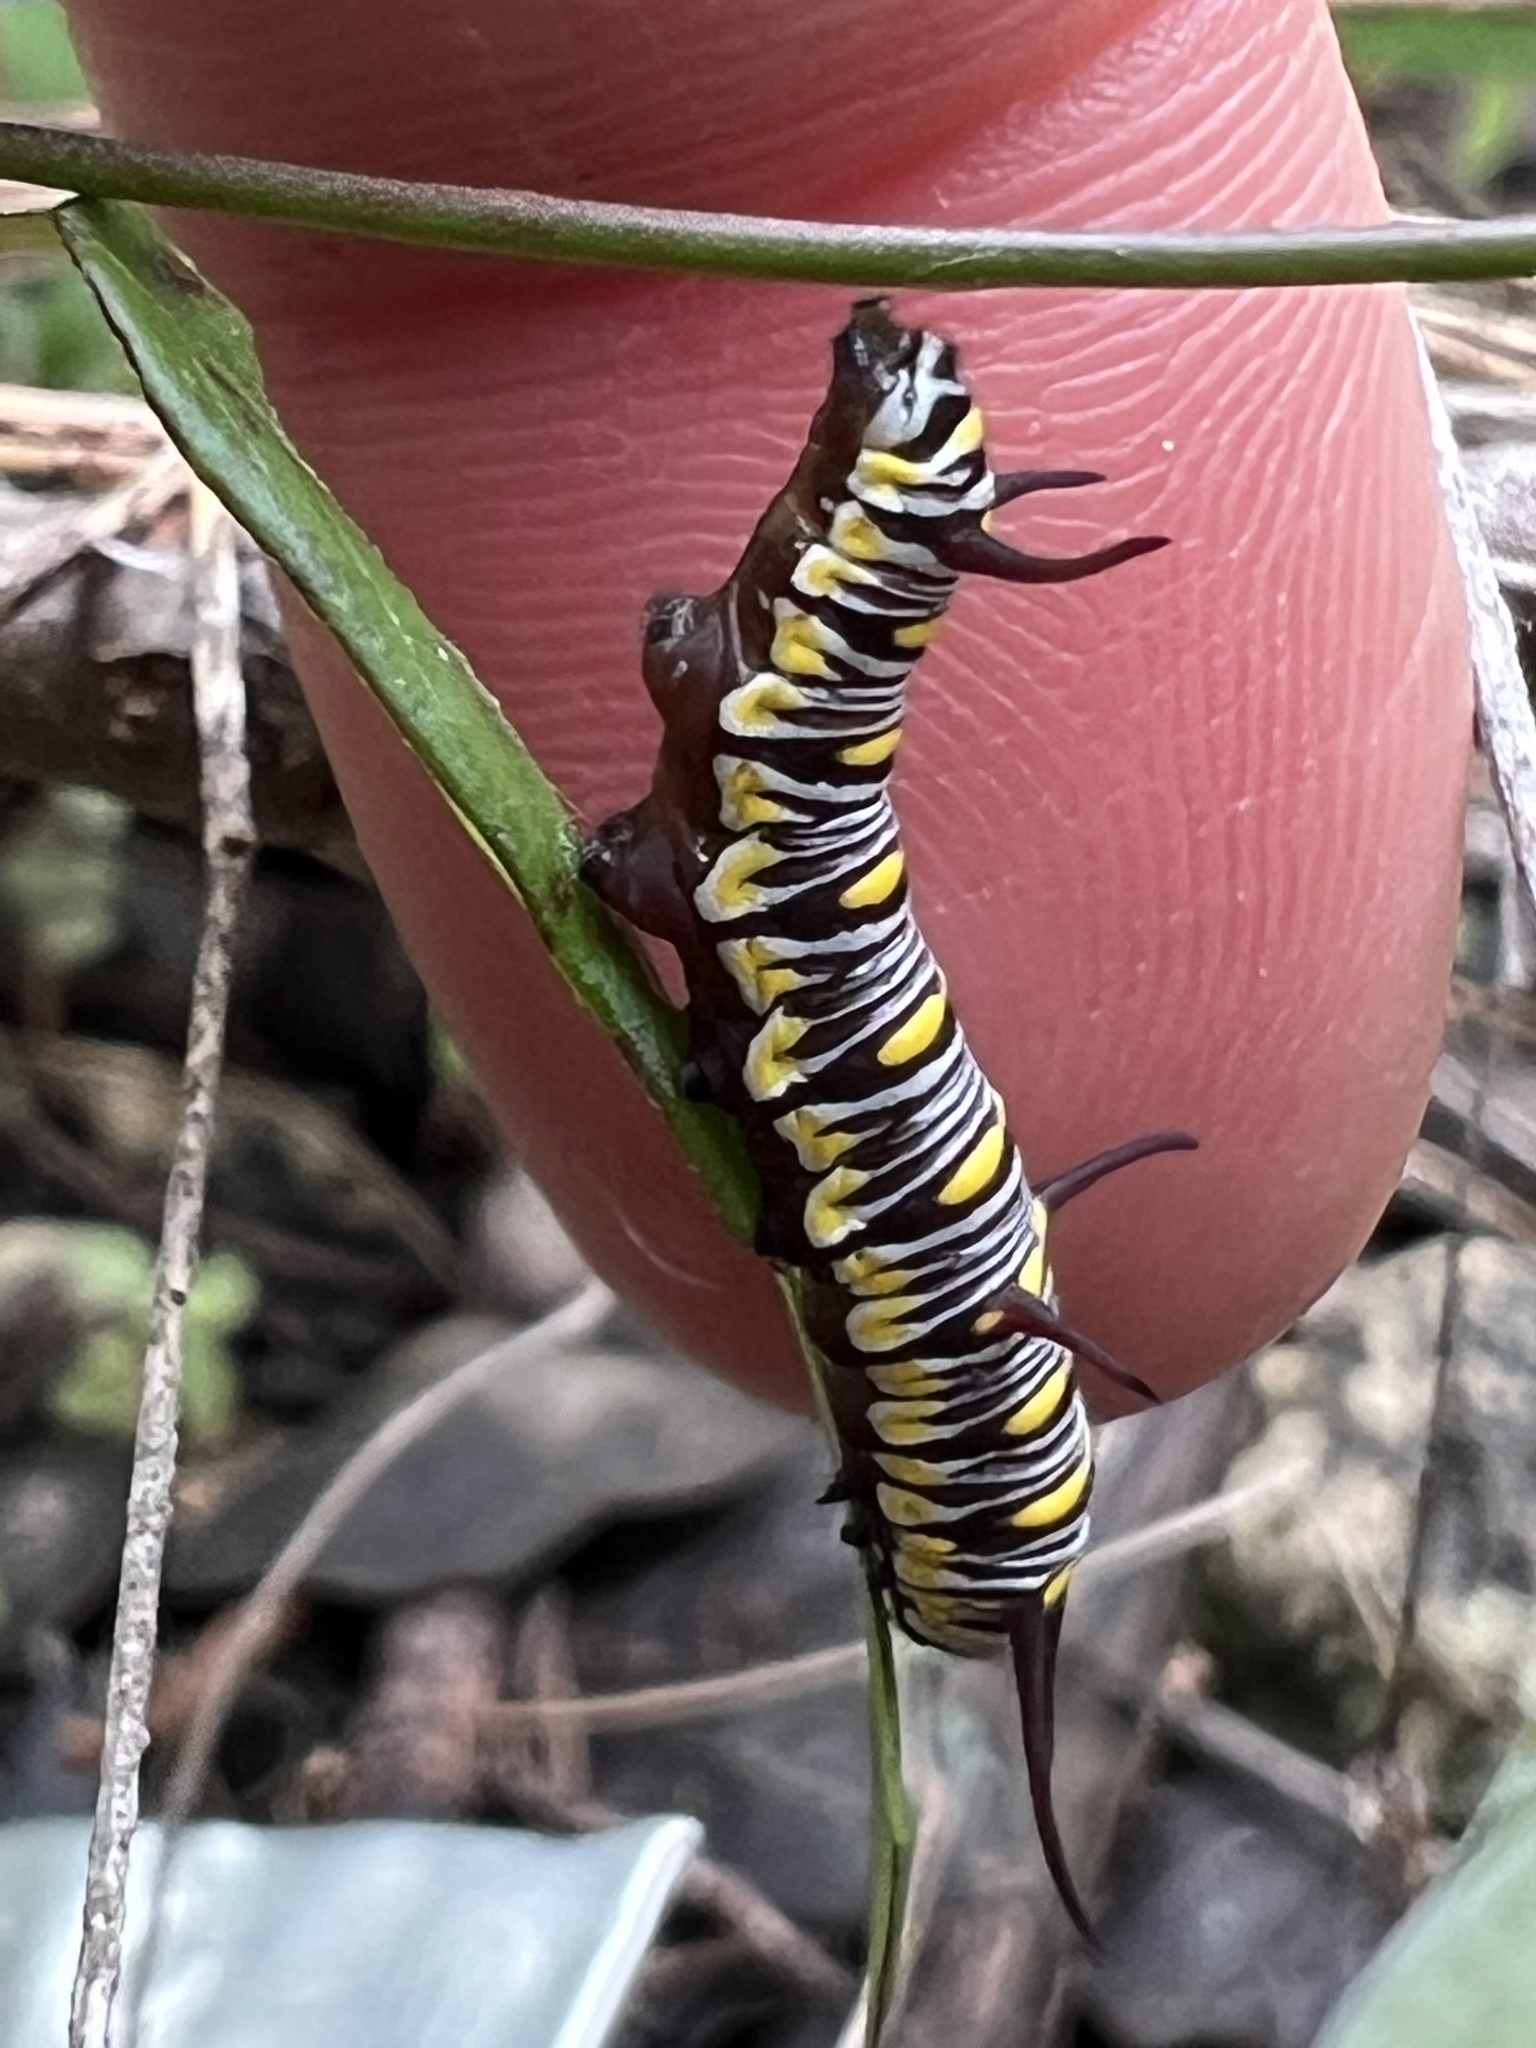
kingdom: Animalia
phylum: Arthropoda
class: Insecta
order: Lepidoptera
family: Nymphalidae
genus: Danaus
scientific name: Danaus gilippus
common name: Queen
